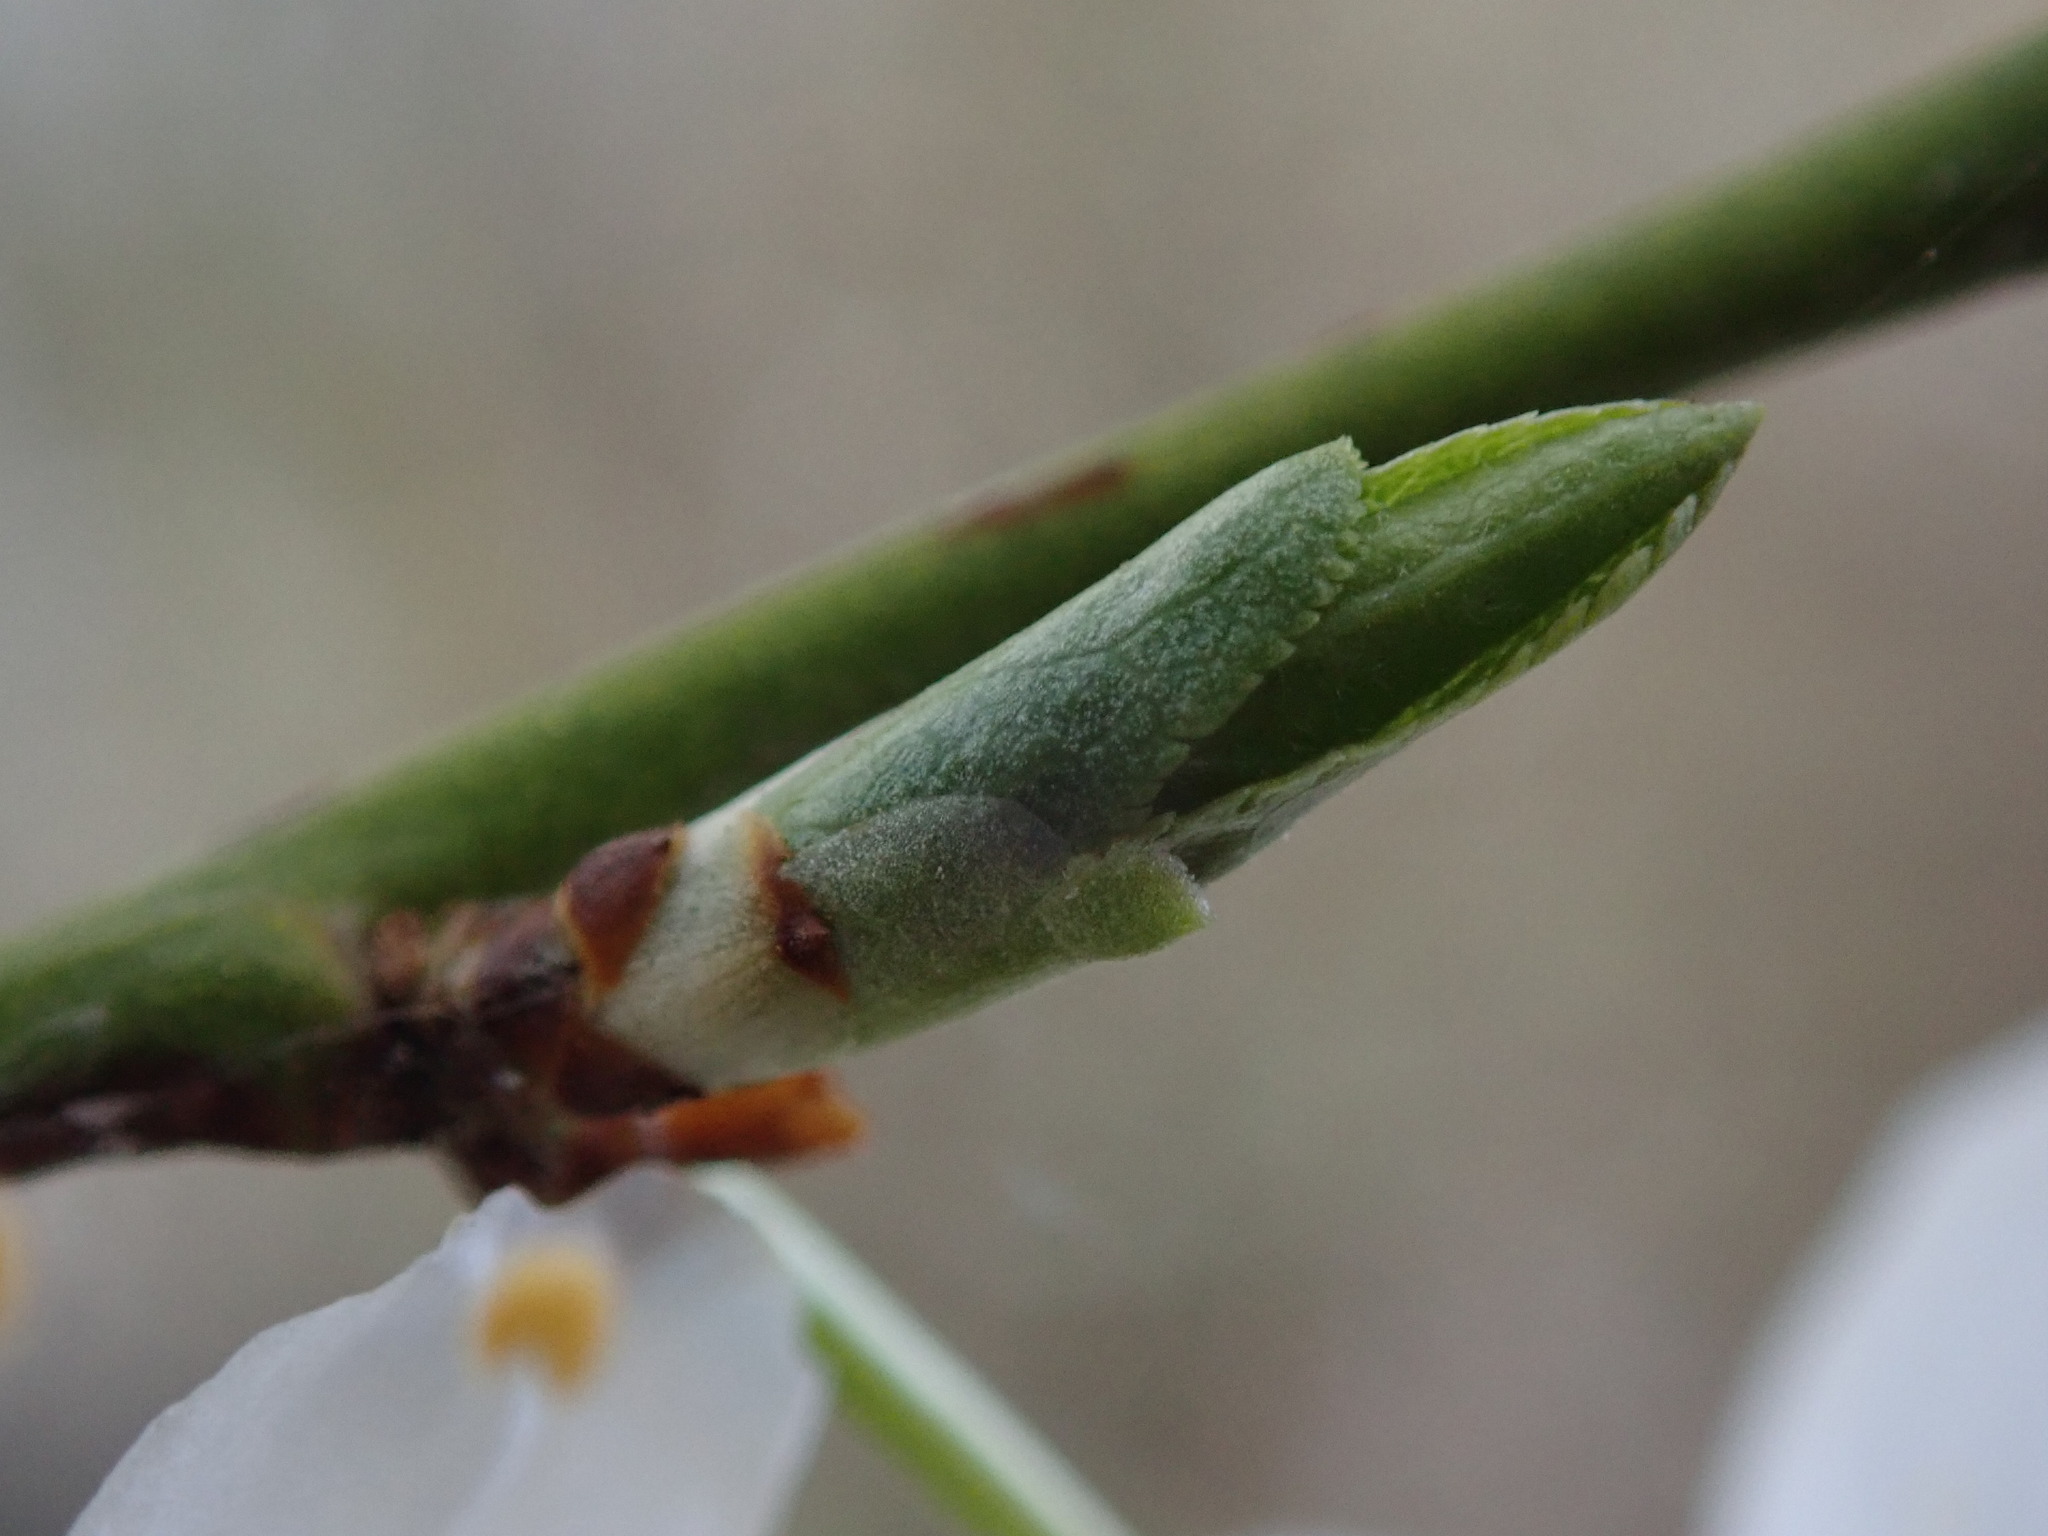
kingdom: Plantae
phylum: Tracheophyta
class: Magnoliopsida
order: Rosales
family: Rosaceae
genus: Prunus
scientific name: Prunus cerasifera
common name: Cherry plum
